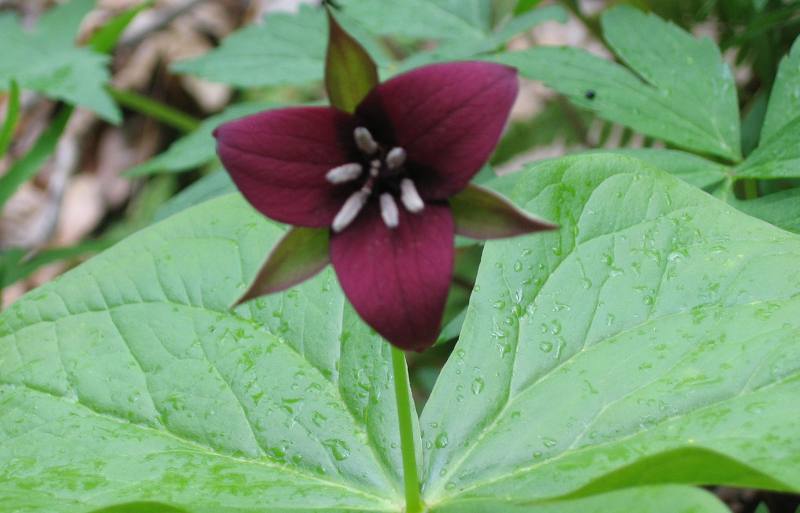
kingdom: Plantae
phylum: Tracheophyta
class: Liliopsida
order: Liliales
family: Melanthiaceae
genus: Trillium
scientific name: Trillium sulcatum
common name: Barksdale trillium
